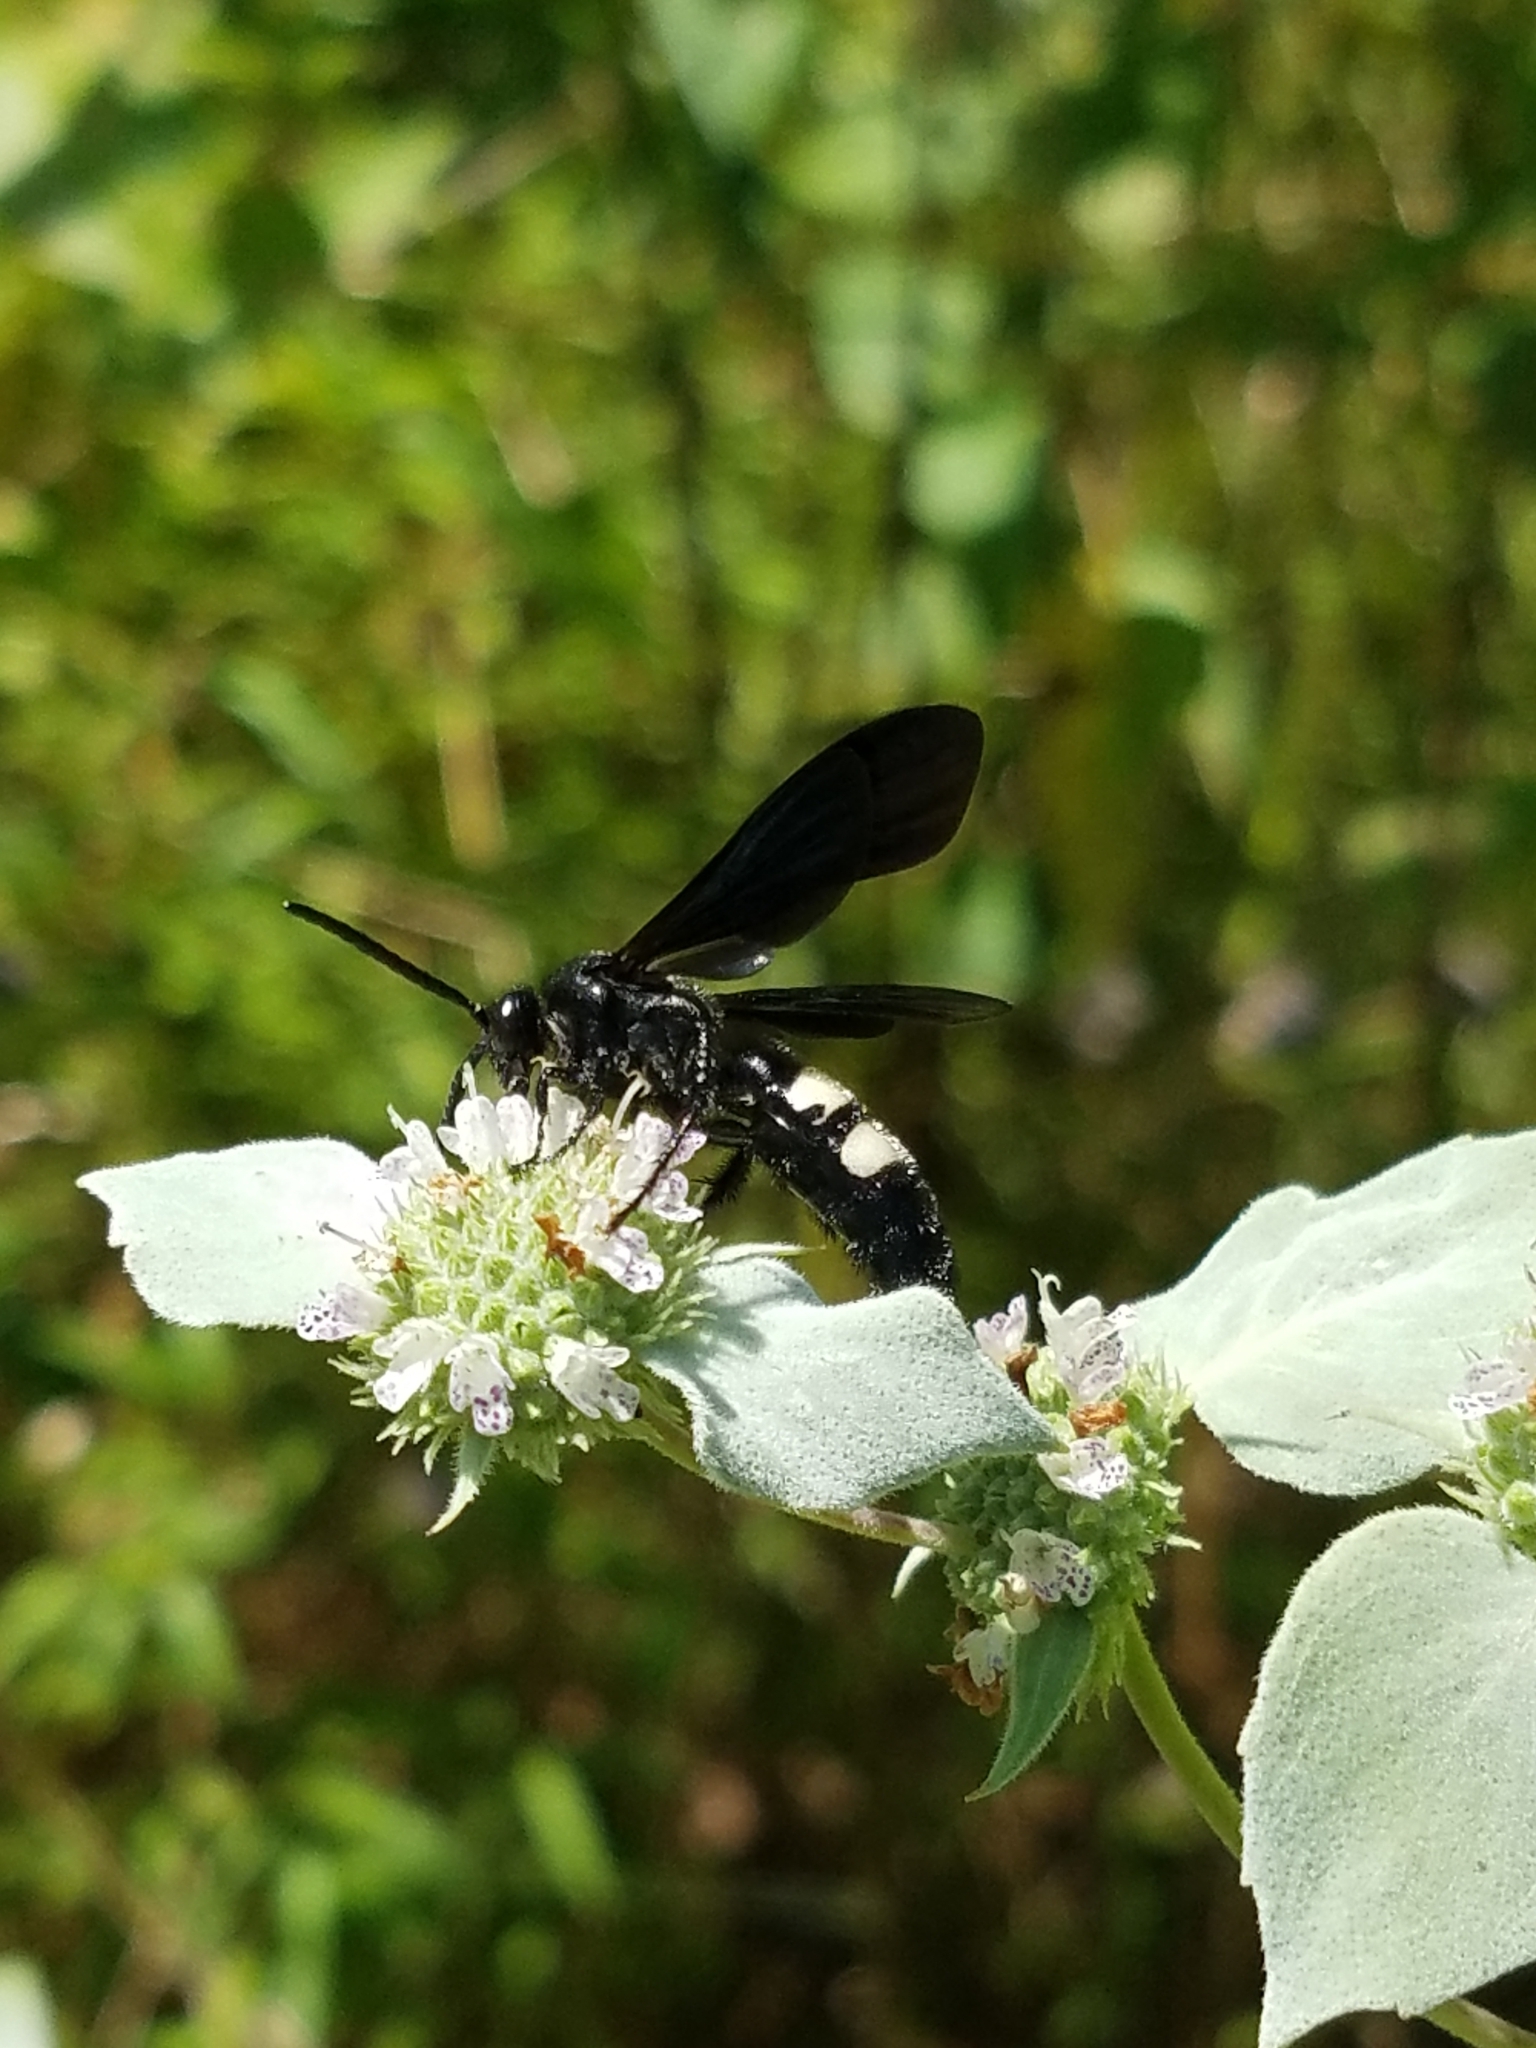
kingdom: Animalia
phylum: Arthropoda
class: Insecta
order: Hymenoptera
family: Scoliidae
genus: Scolia
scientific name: Scolia bicincta
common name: Double-banded scoliid wasp
